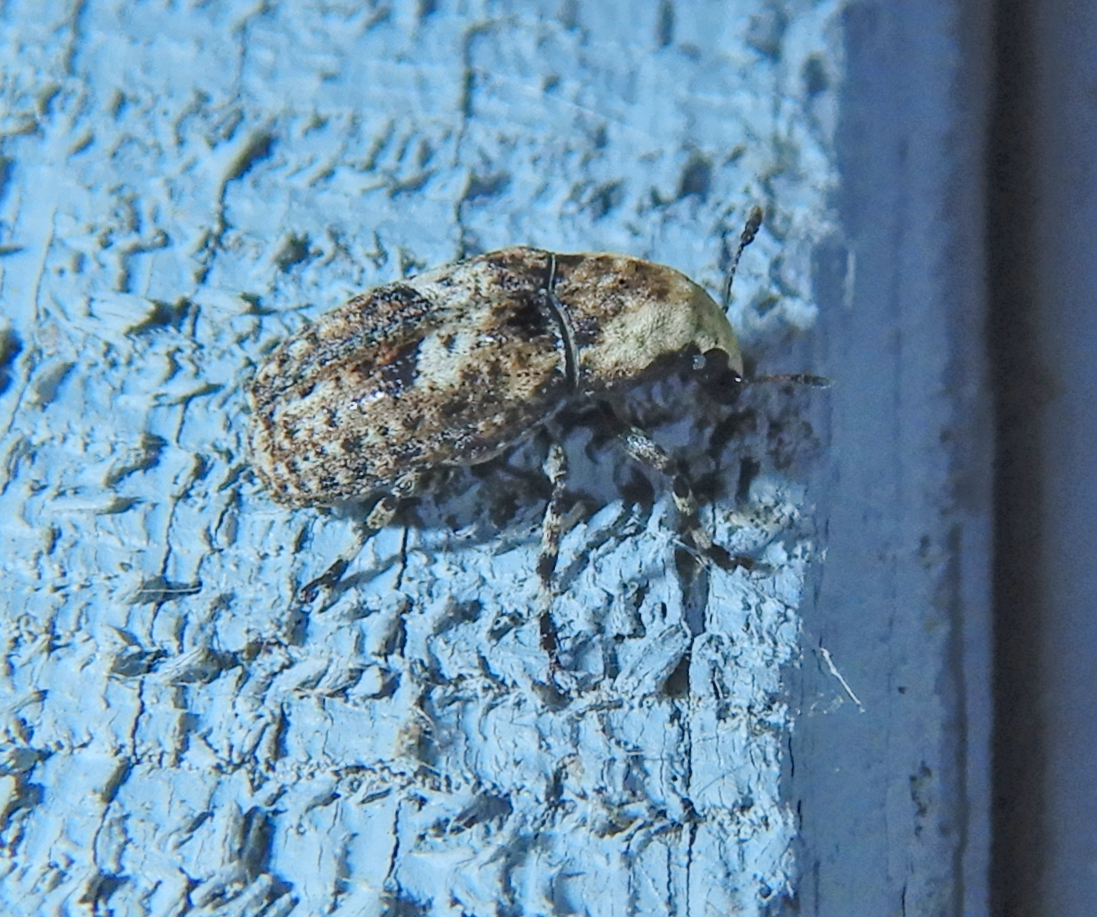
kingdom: Animalia
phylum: Arthropoda
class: Insecta
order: Coleoptera
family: Anthribidae
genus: Euparius
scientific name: Euparius marmoreus
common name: Marbled fungus weevil
